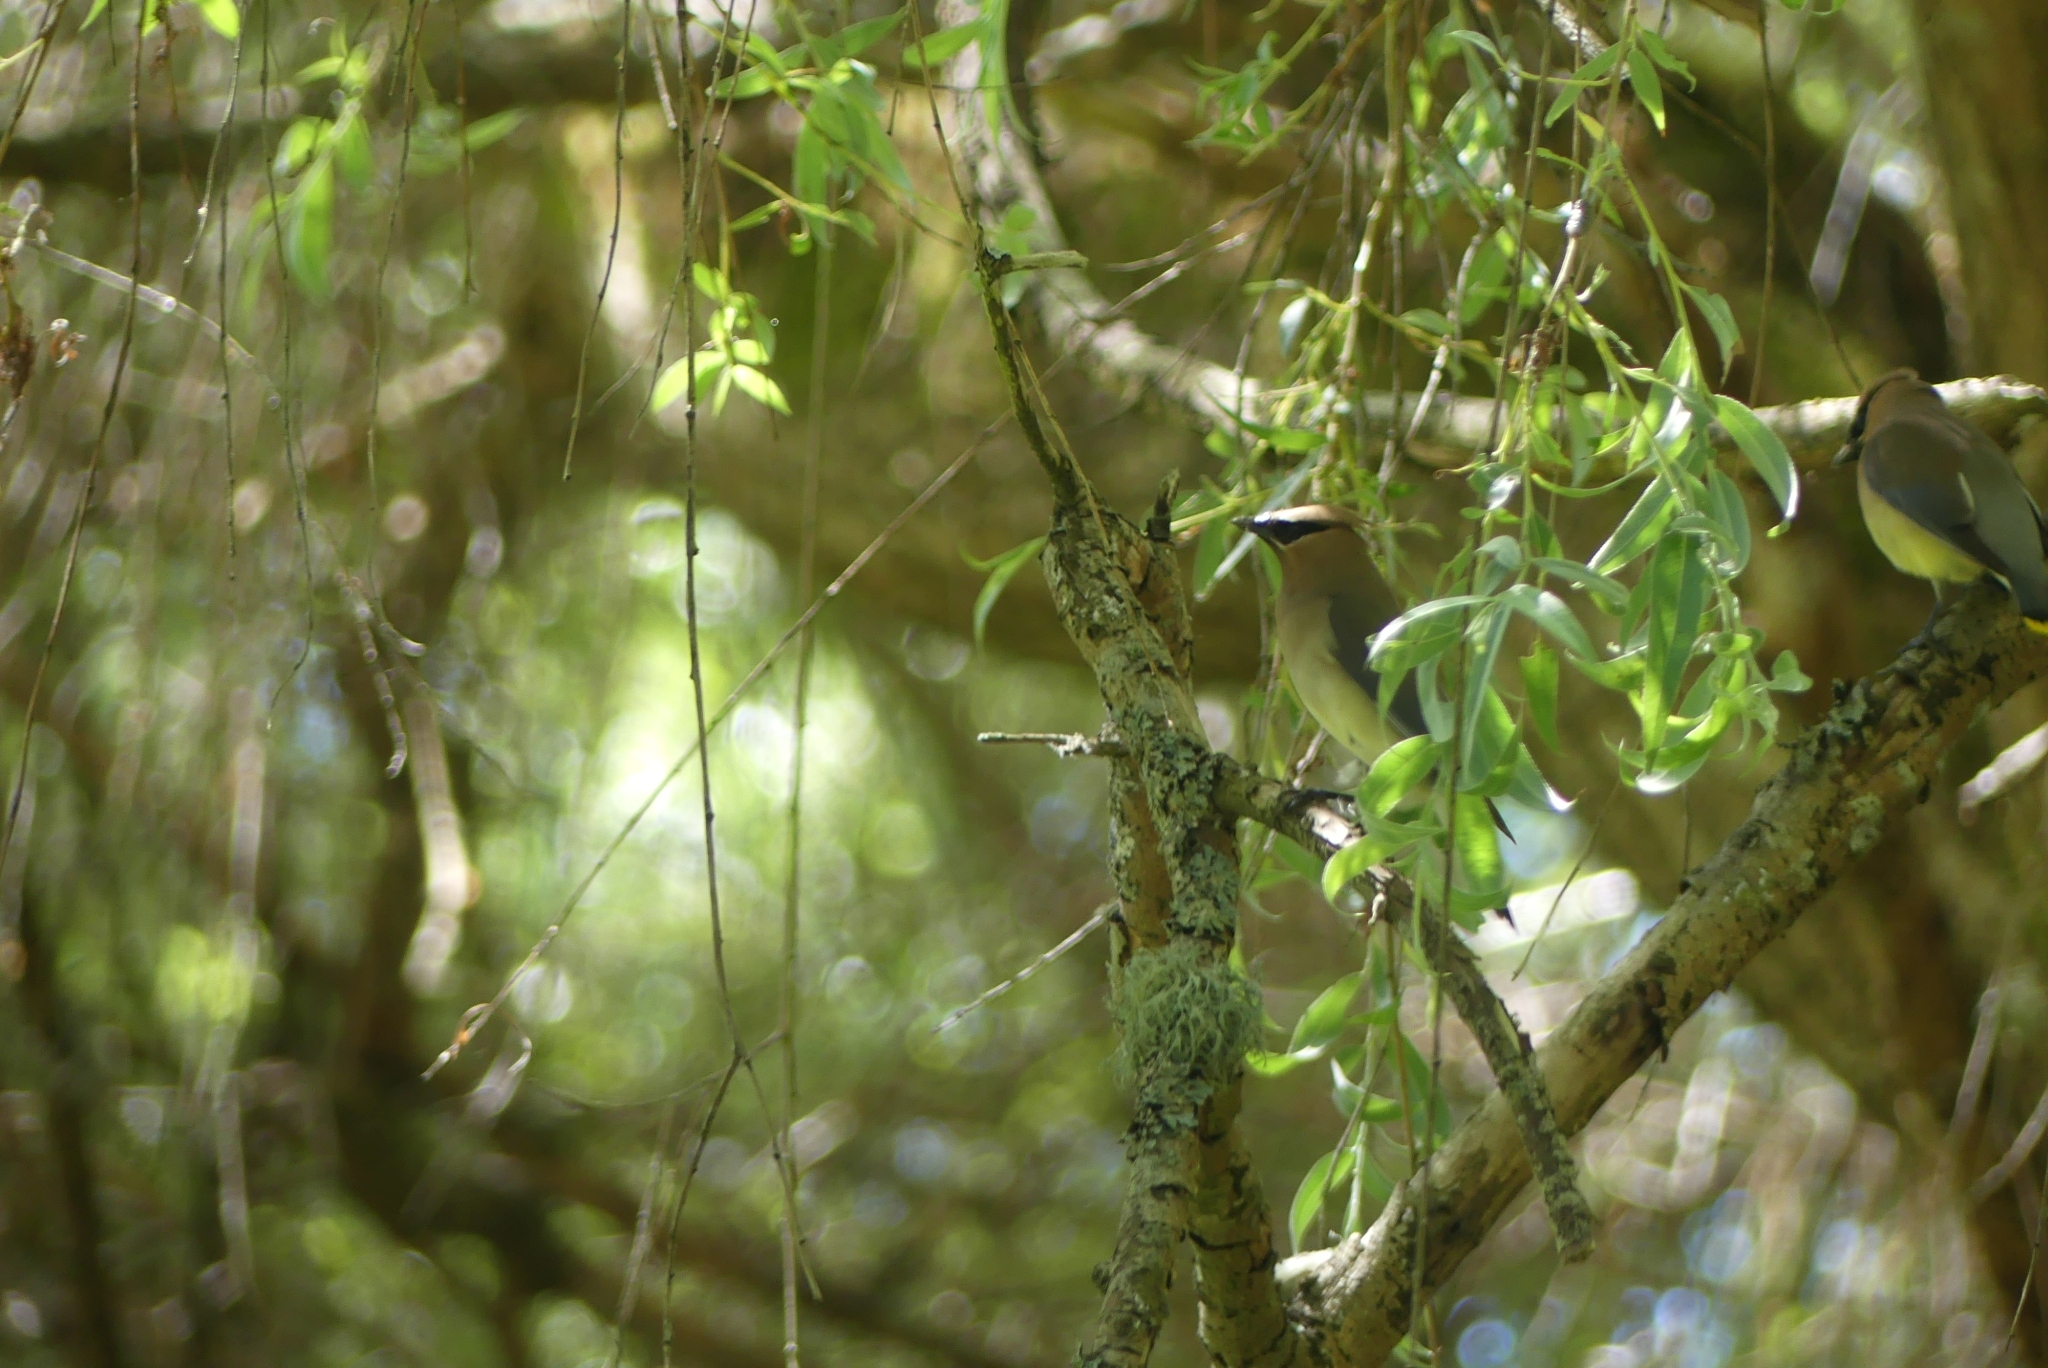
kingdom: Animalia
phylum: Chordata
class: Aves
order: Passeriformes
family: Bombycillidae
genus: Bombycilla
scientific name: Bombycilla cedrorum
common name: Cedar waxwing
